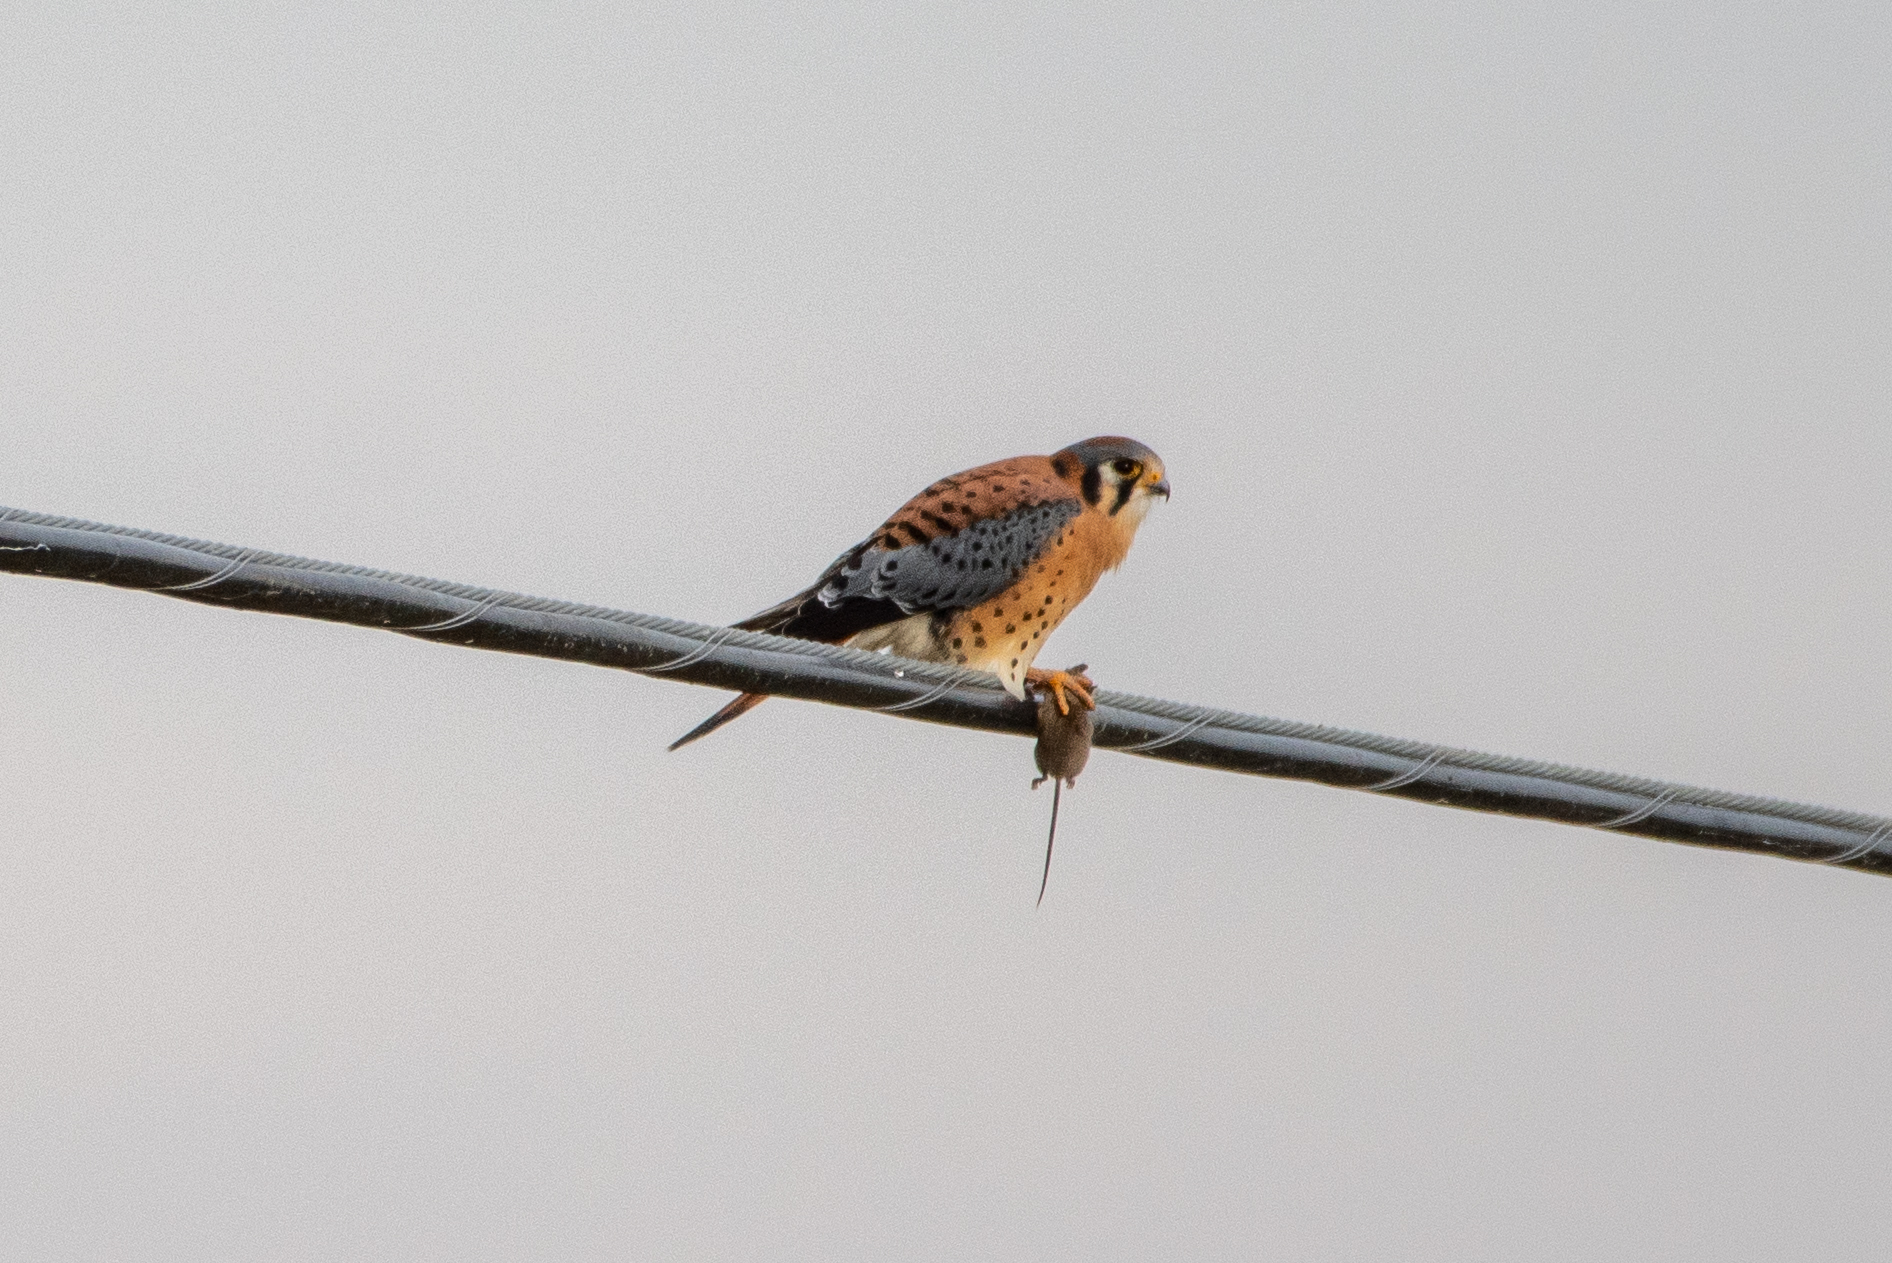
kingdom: Animalia
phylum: Chordata
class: Aves
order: Falconiformes
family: Falconidae
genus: Falco
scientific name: Falco sparverius
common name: American kestrel
